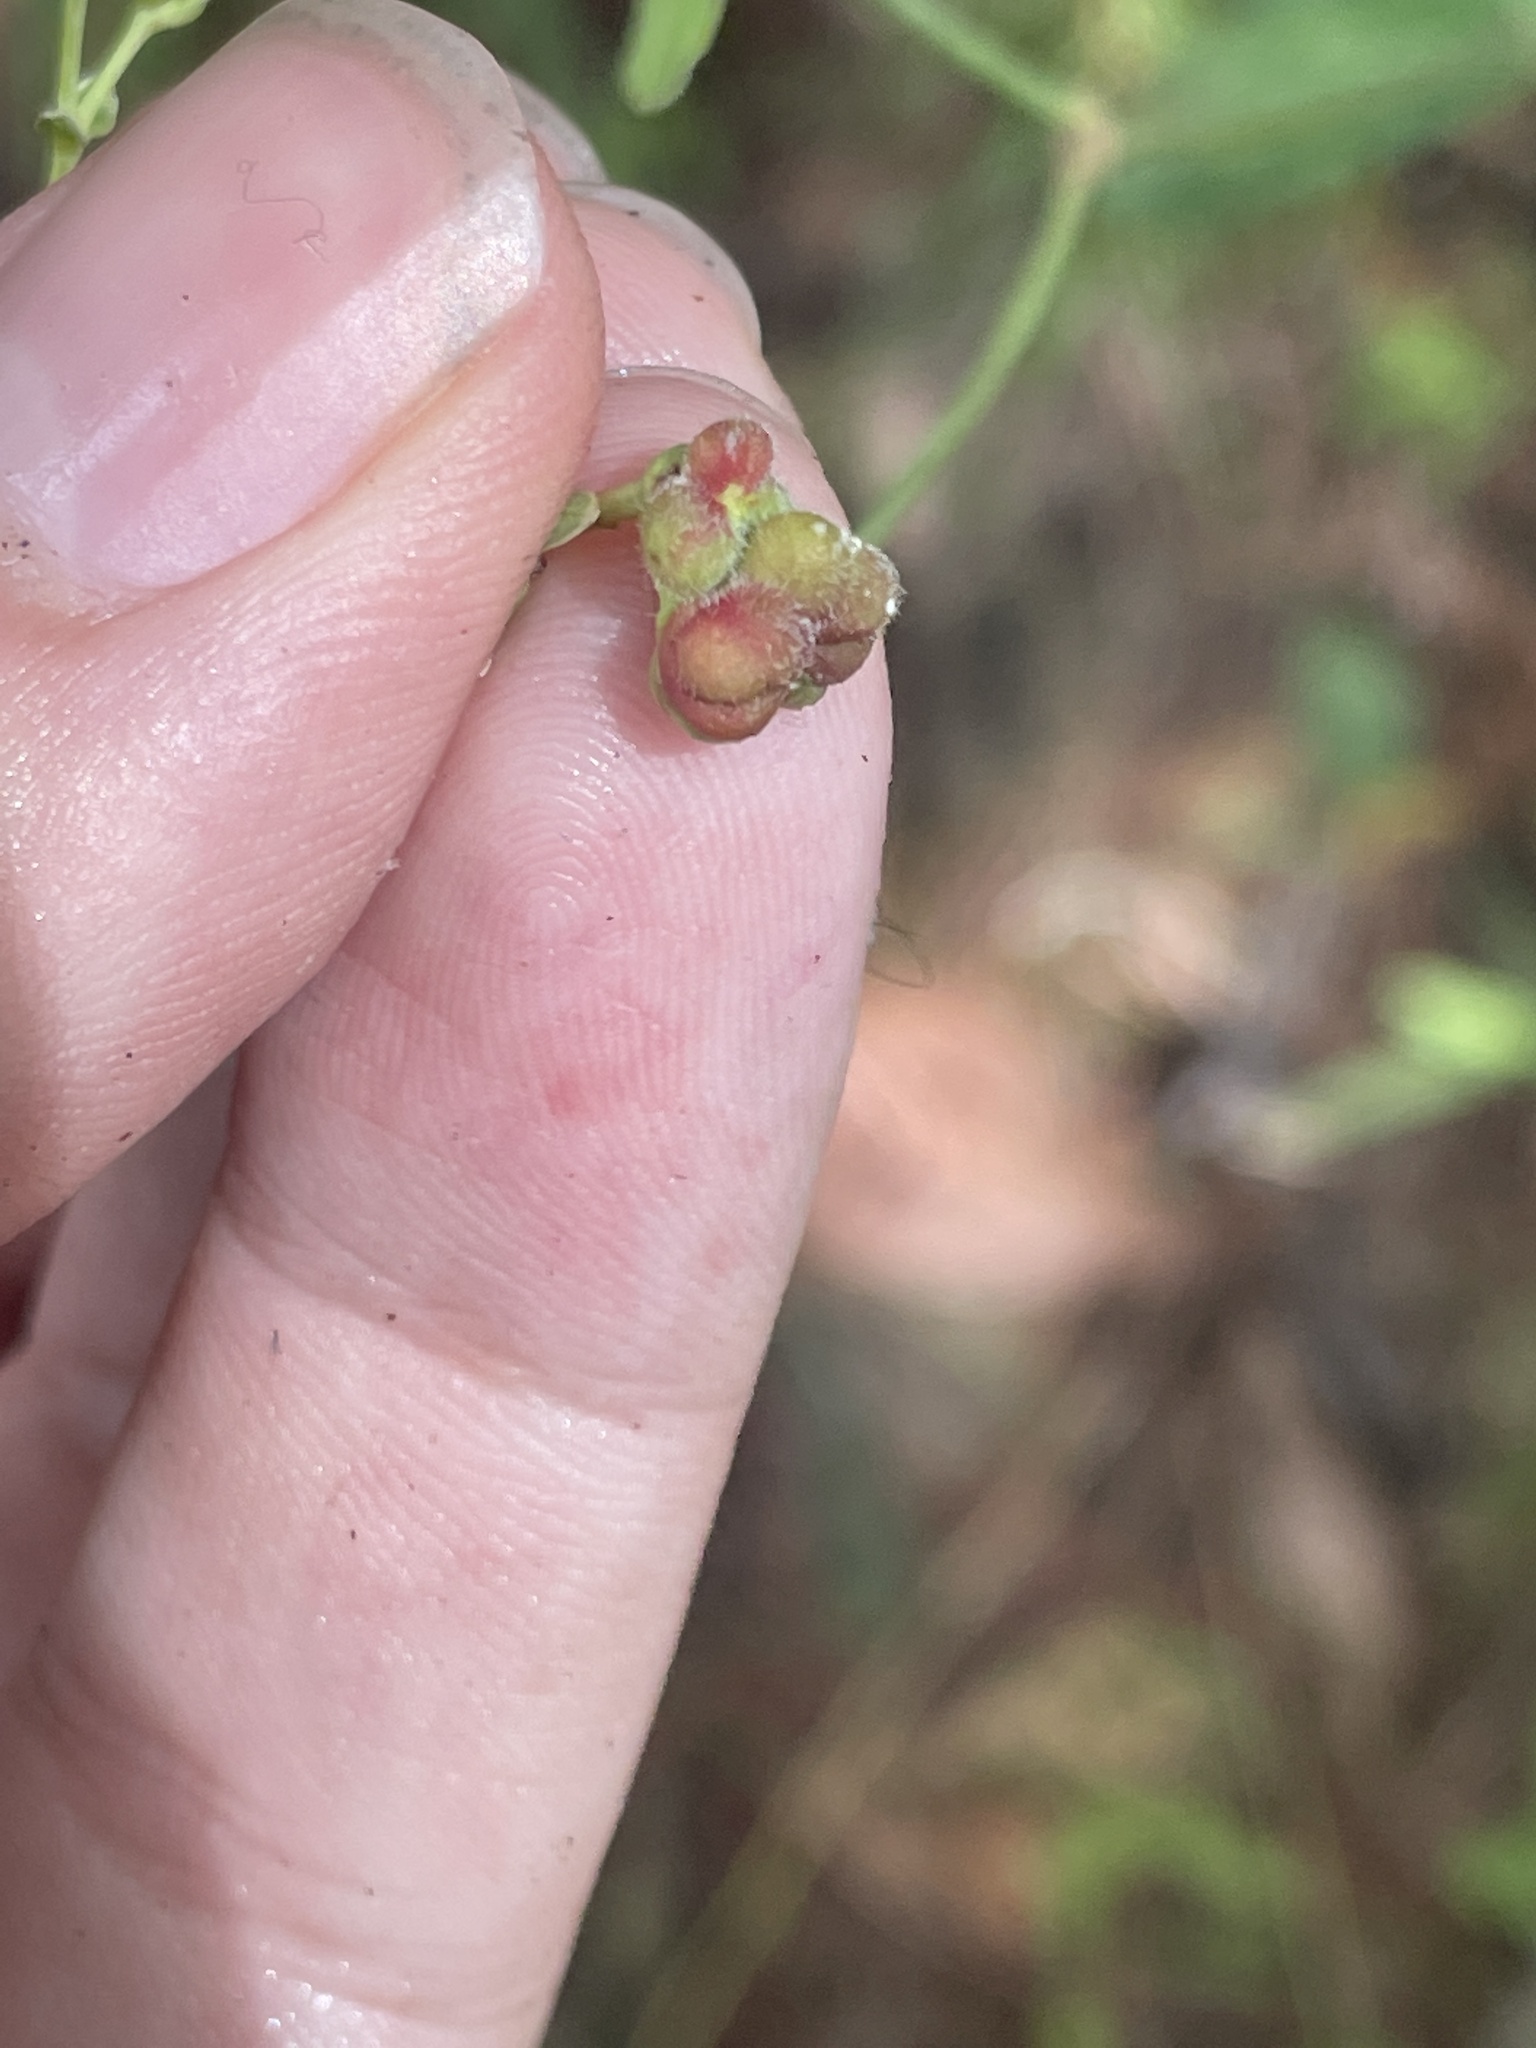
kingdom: Plantae
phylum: Tracheophyta
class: Magnoliopsida
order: Malpighiales
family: Euphorbiaceae
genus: Euphorbia
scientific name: Euphorbia corollata
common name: Flowering spurge
